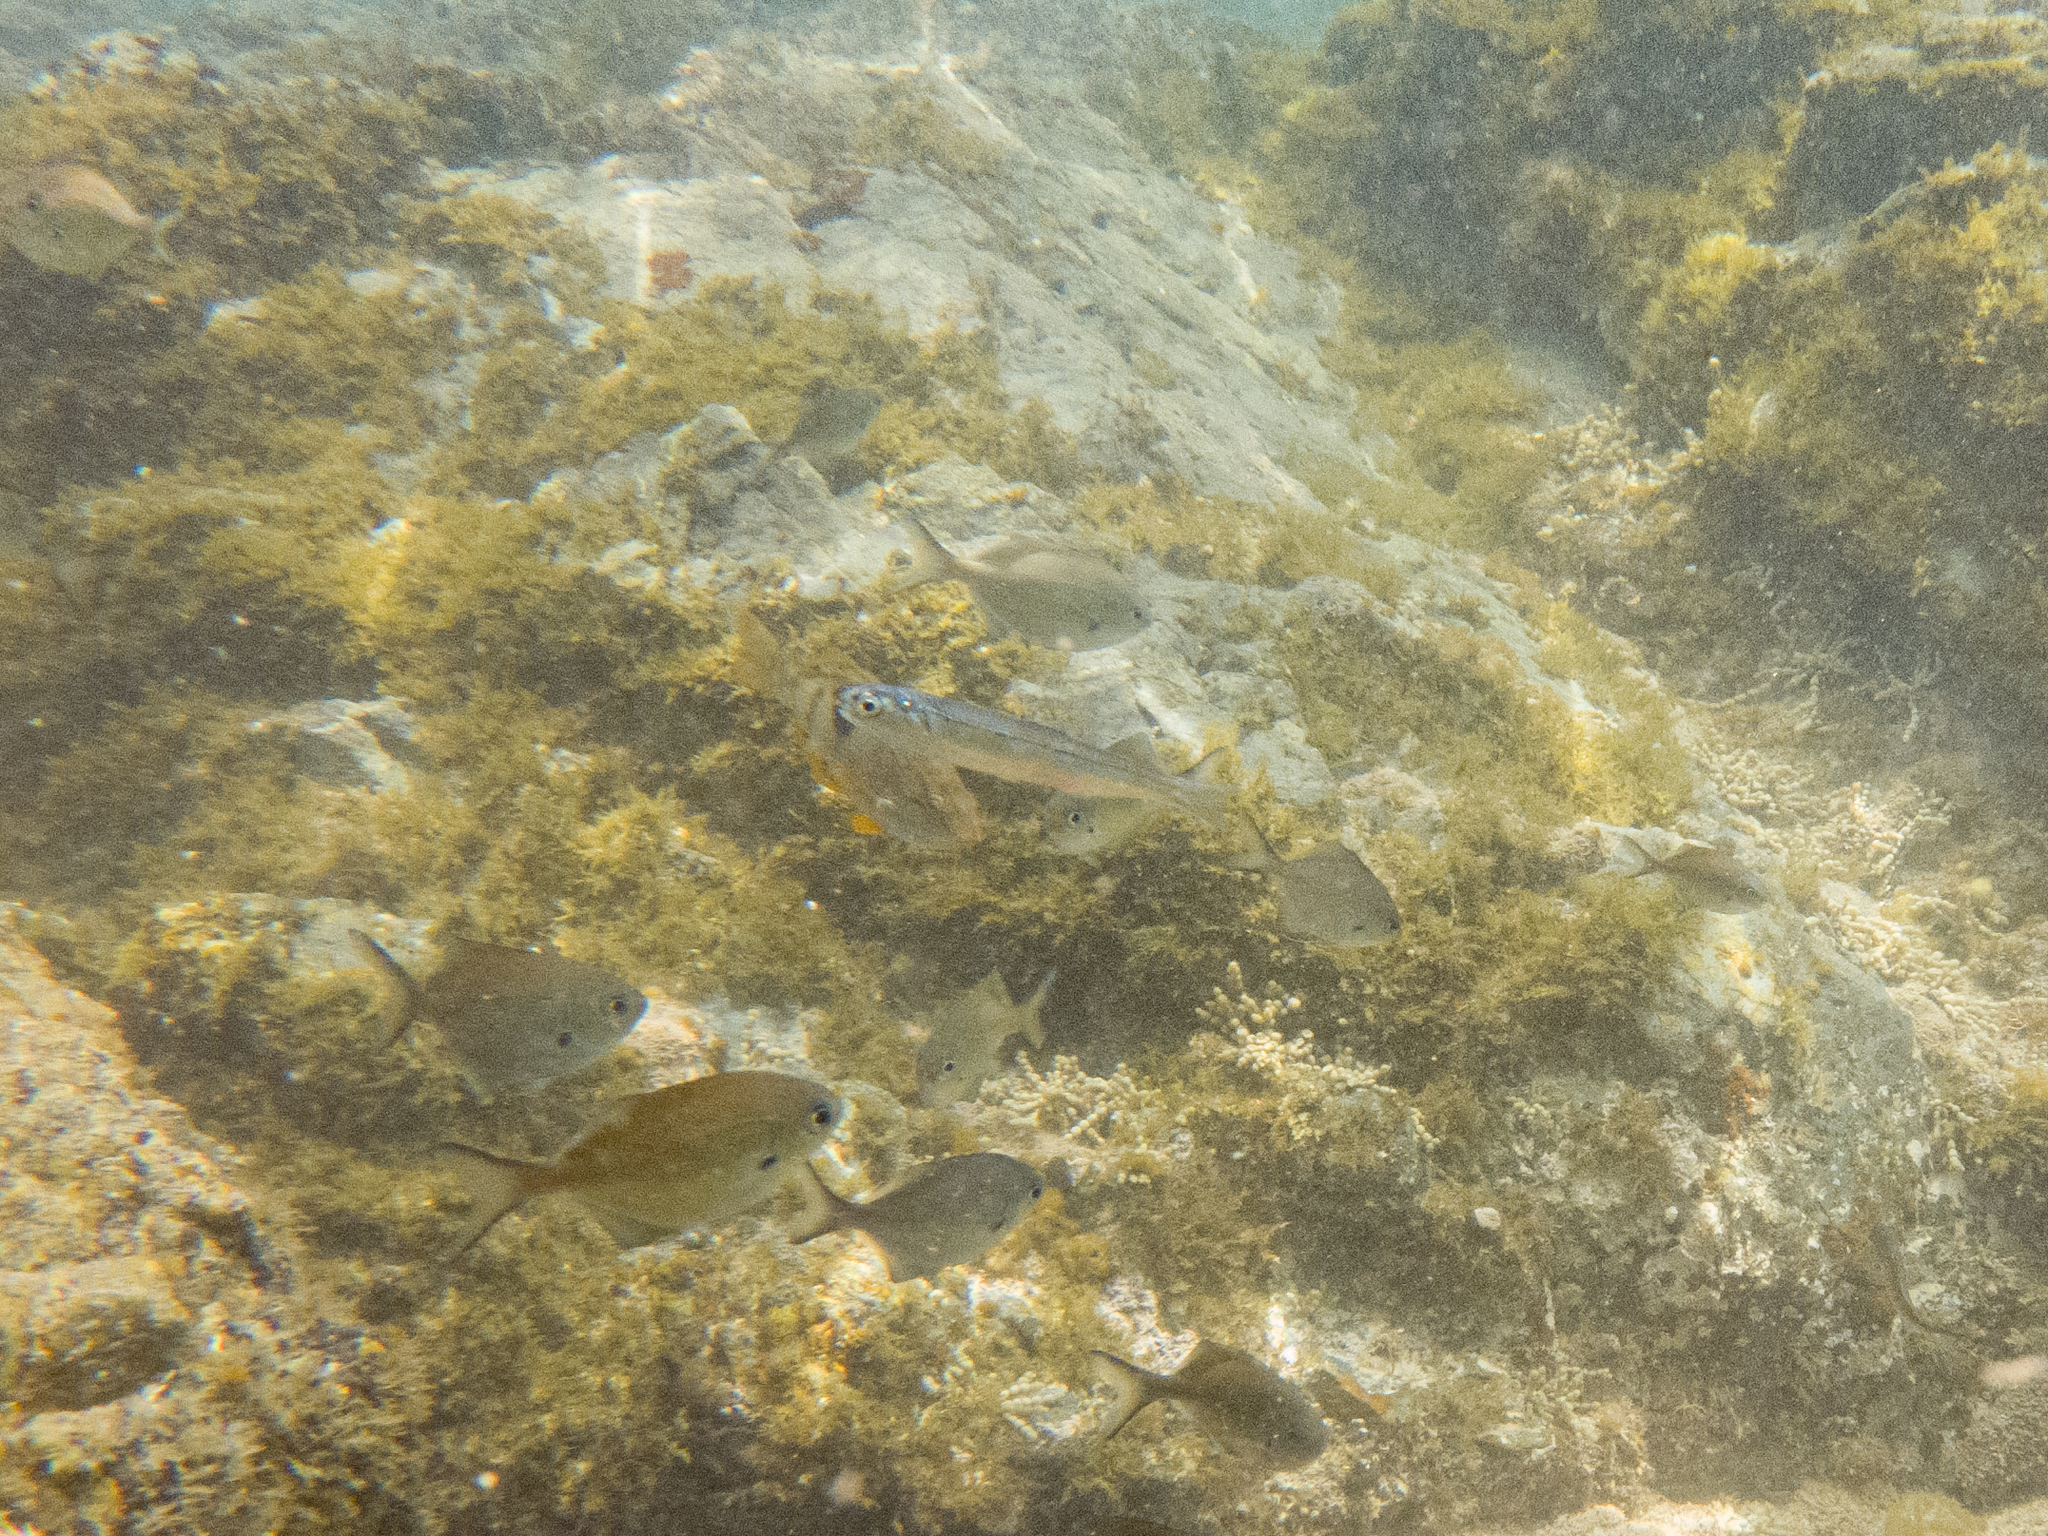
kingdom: Animalia
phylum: Chordata
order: Clupeiformes
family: Engraulidae
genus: Engraulis
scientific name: Engraulis australis
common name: Australian anchovy
